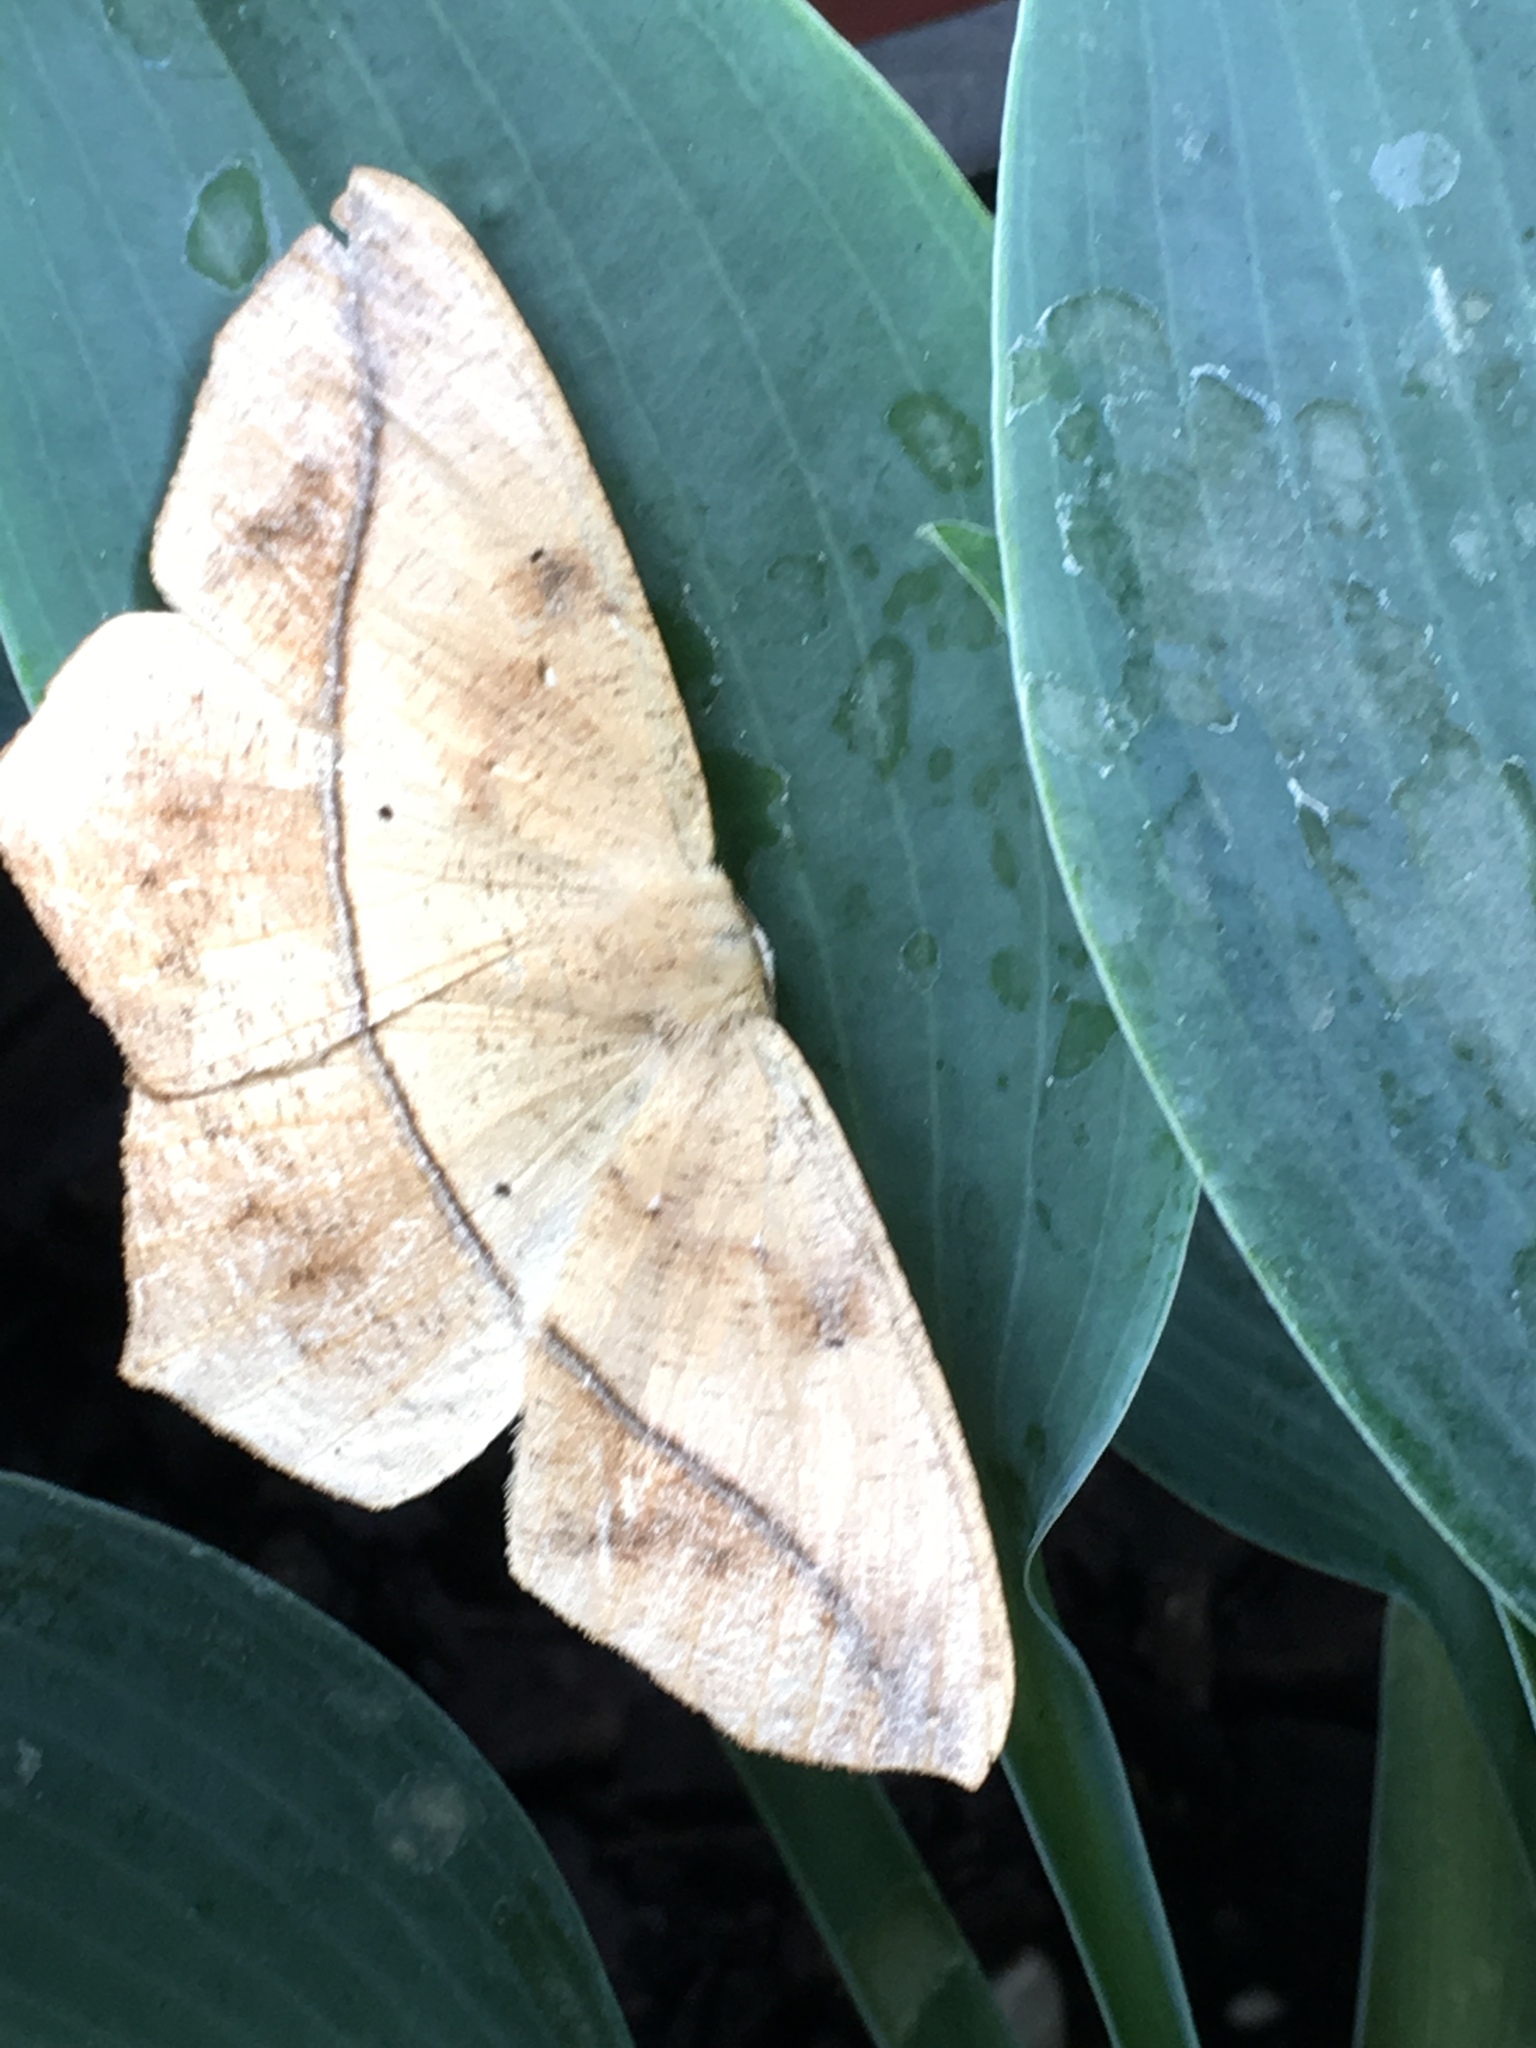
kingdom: Animalia
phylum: Arthropoda
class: Insecta
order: Lepidoptera
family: Geometridae
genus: Prochoerodes
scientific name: Prochoerodes lineola
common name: Large maple spanworm
